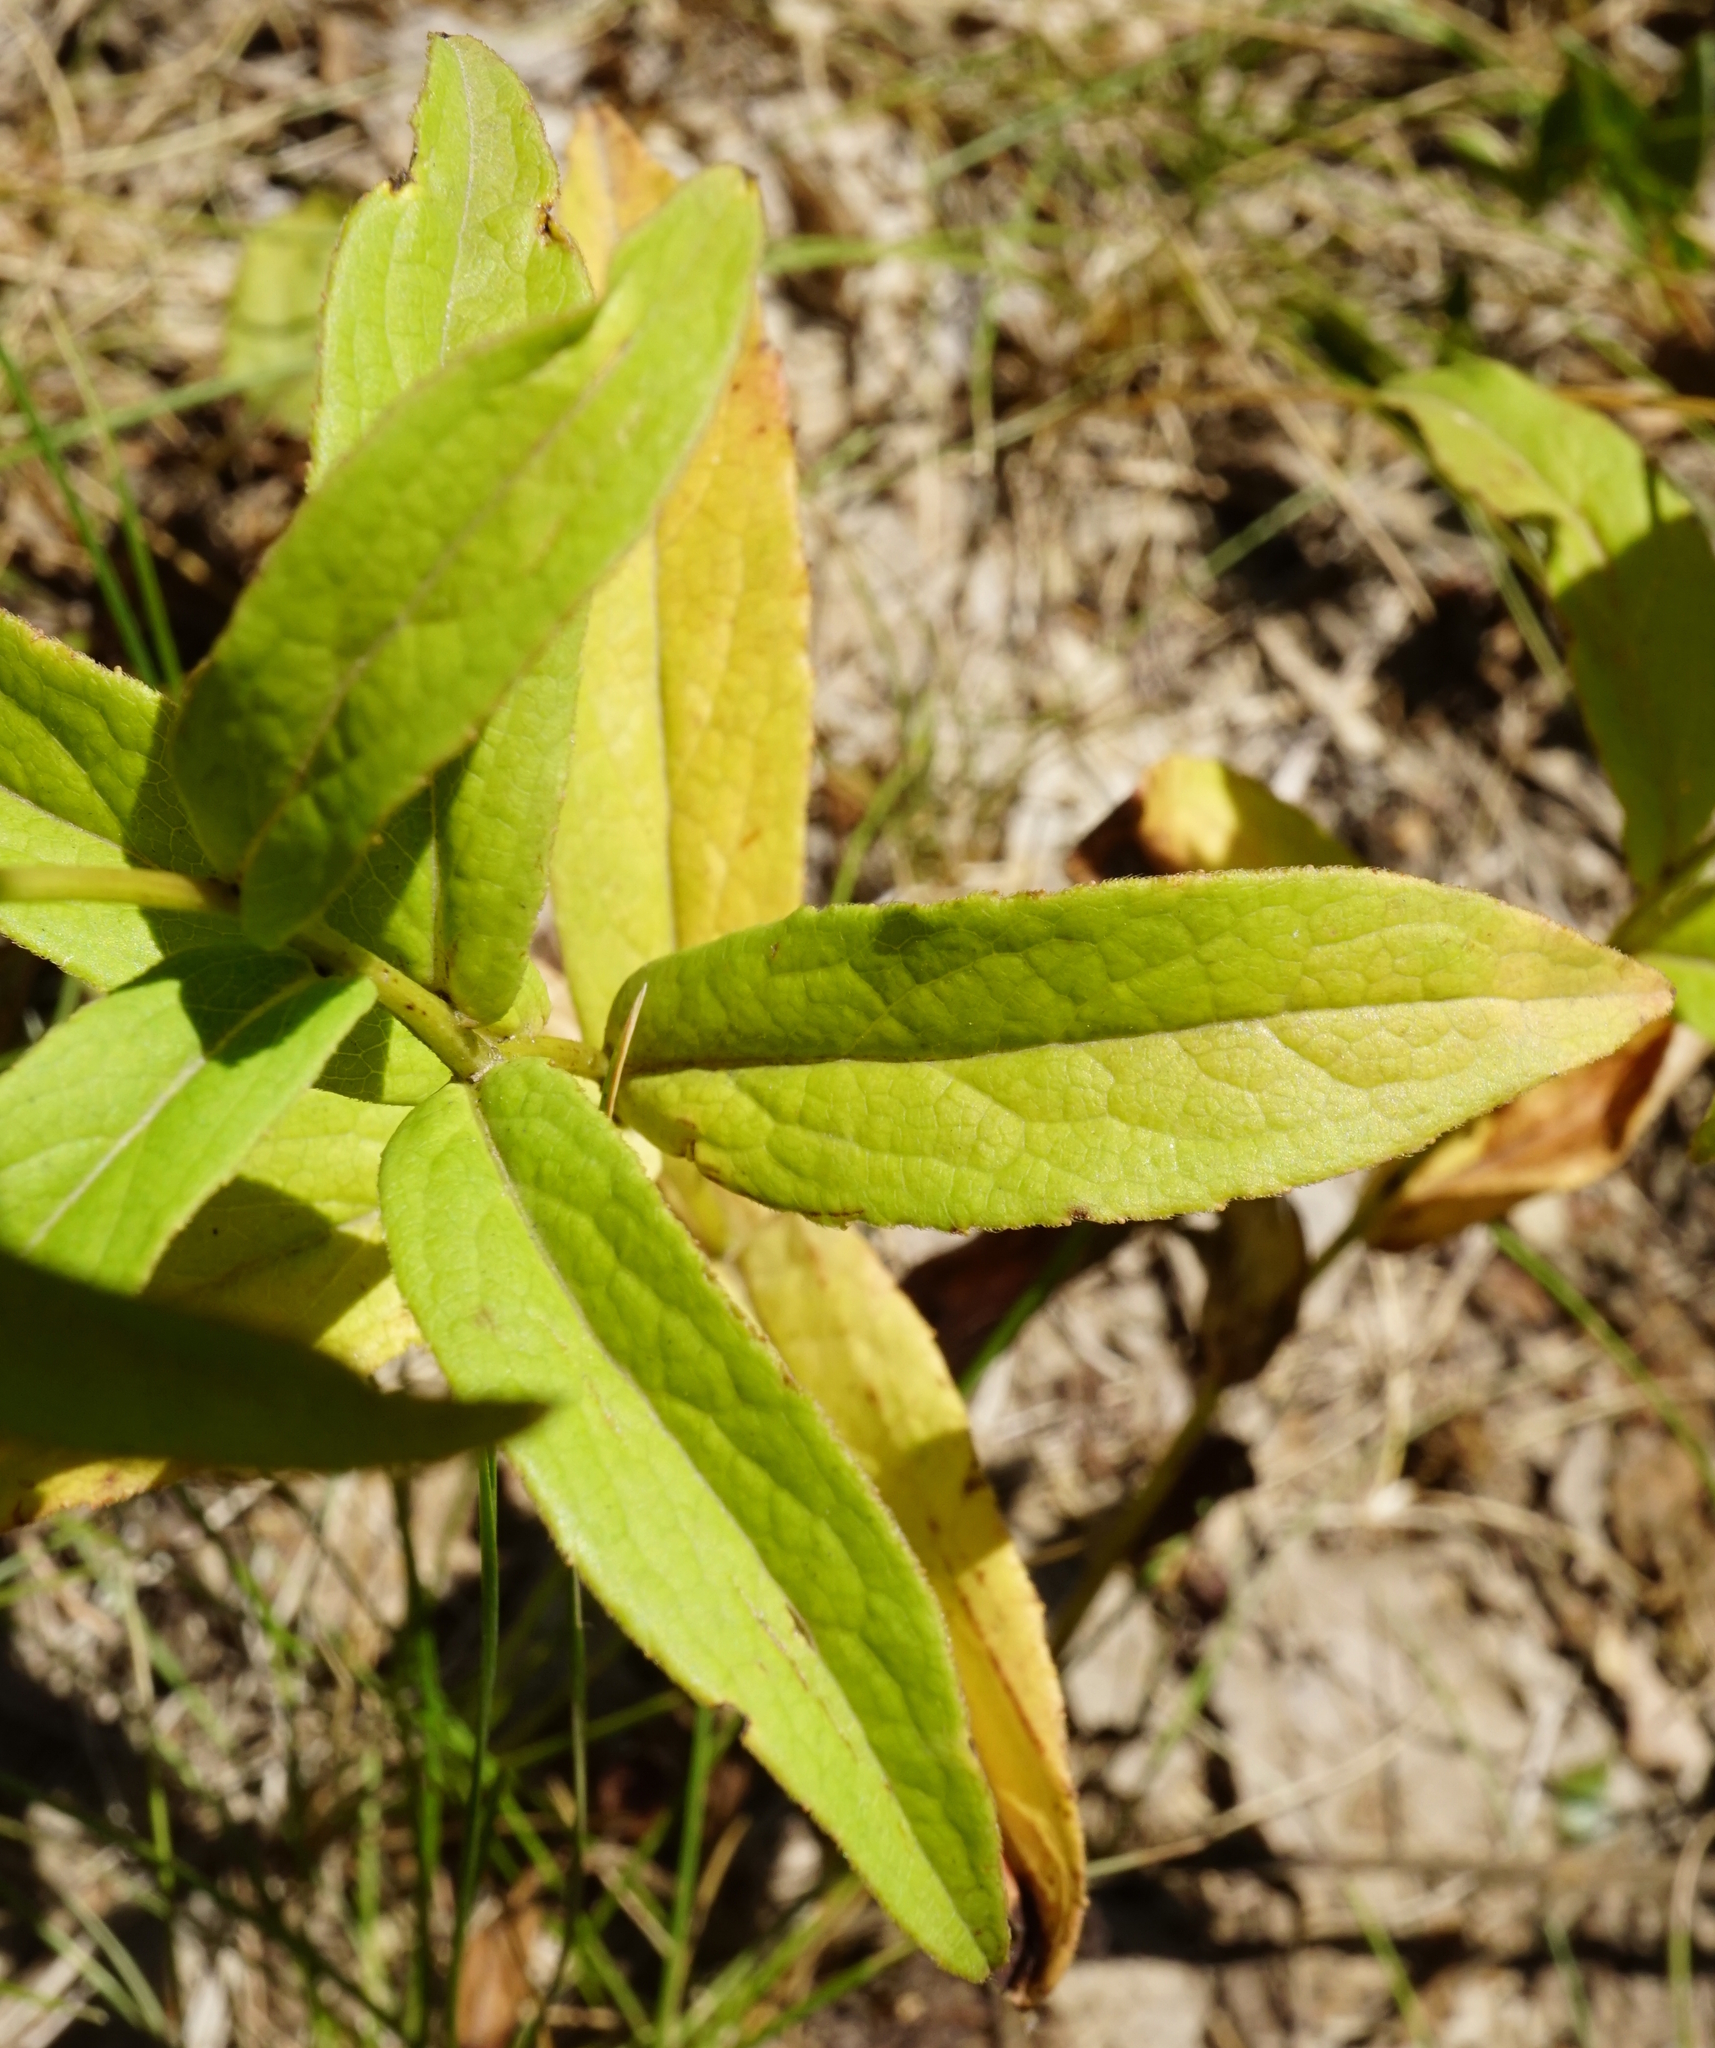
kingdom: Plantae
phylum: Tracheophyta
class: Magnoliopsida
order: Asterales
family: Asteraceae
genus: Pentanema
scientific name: Pentanema salicinum
